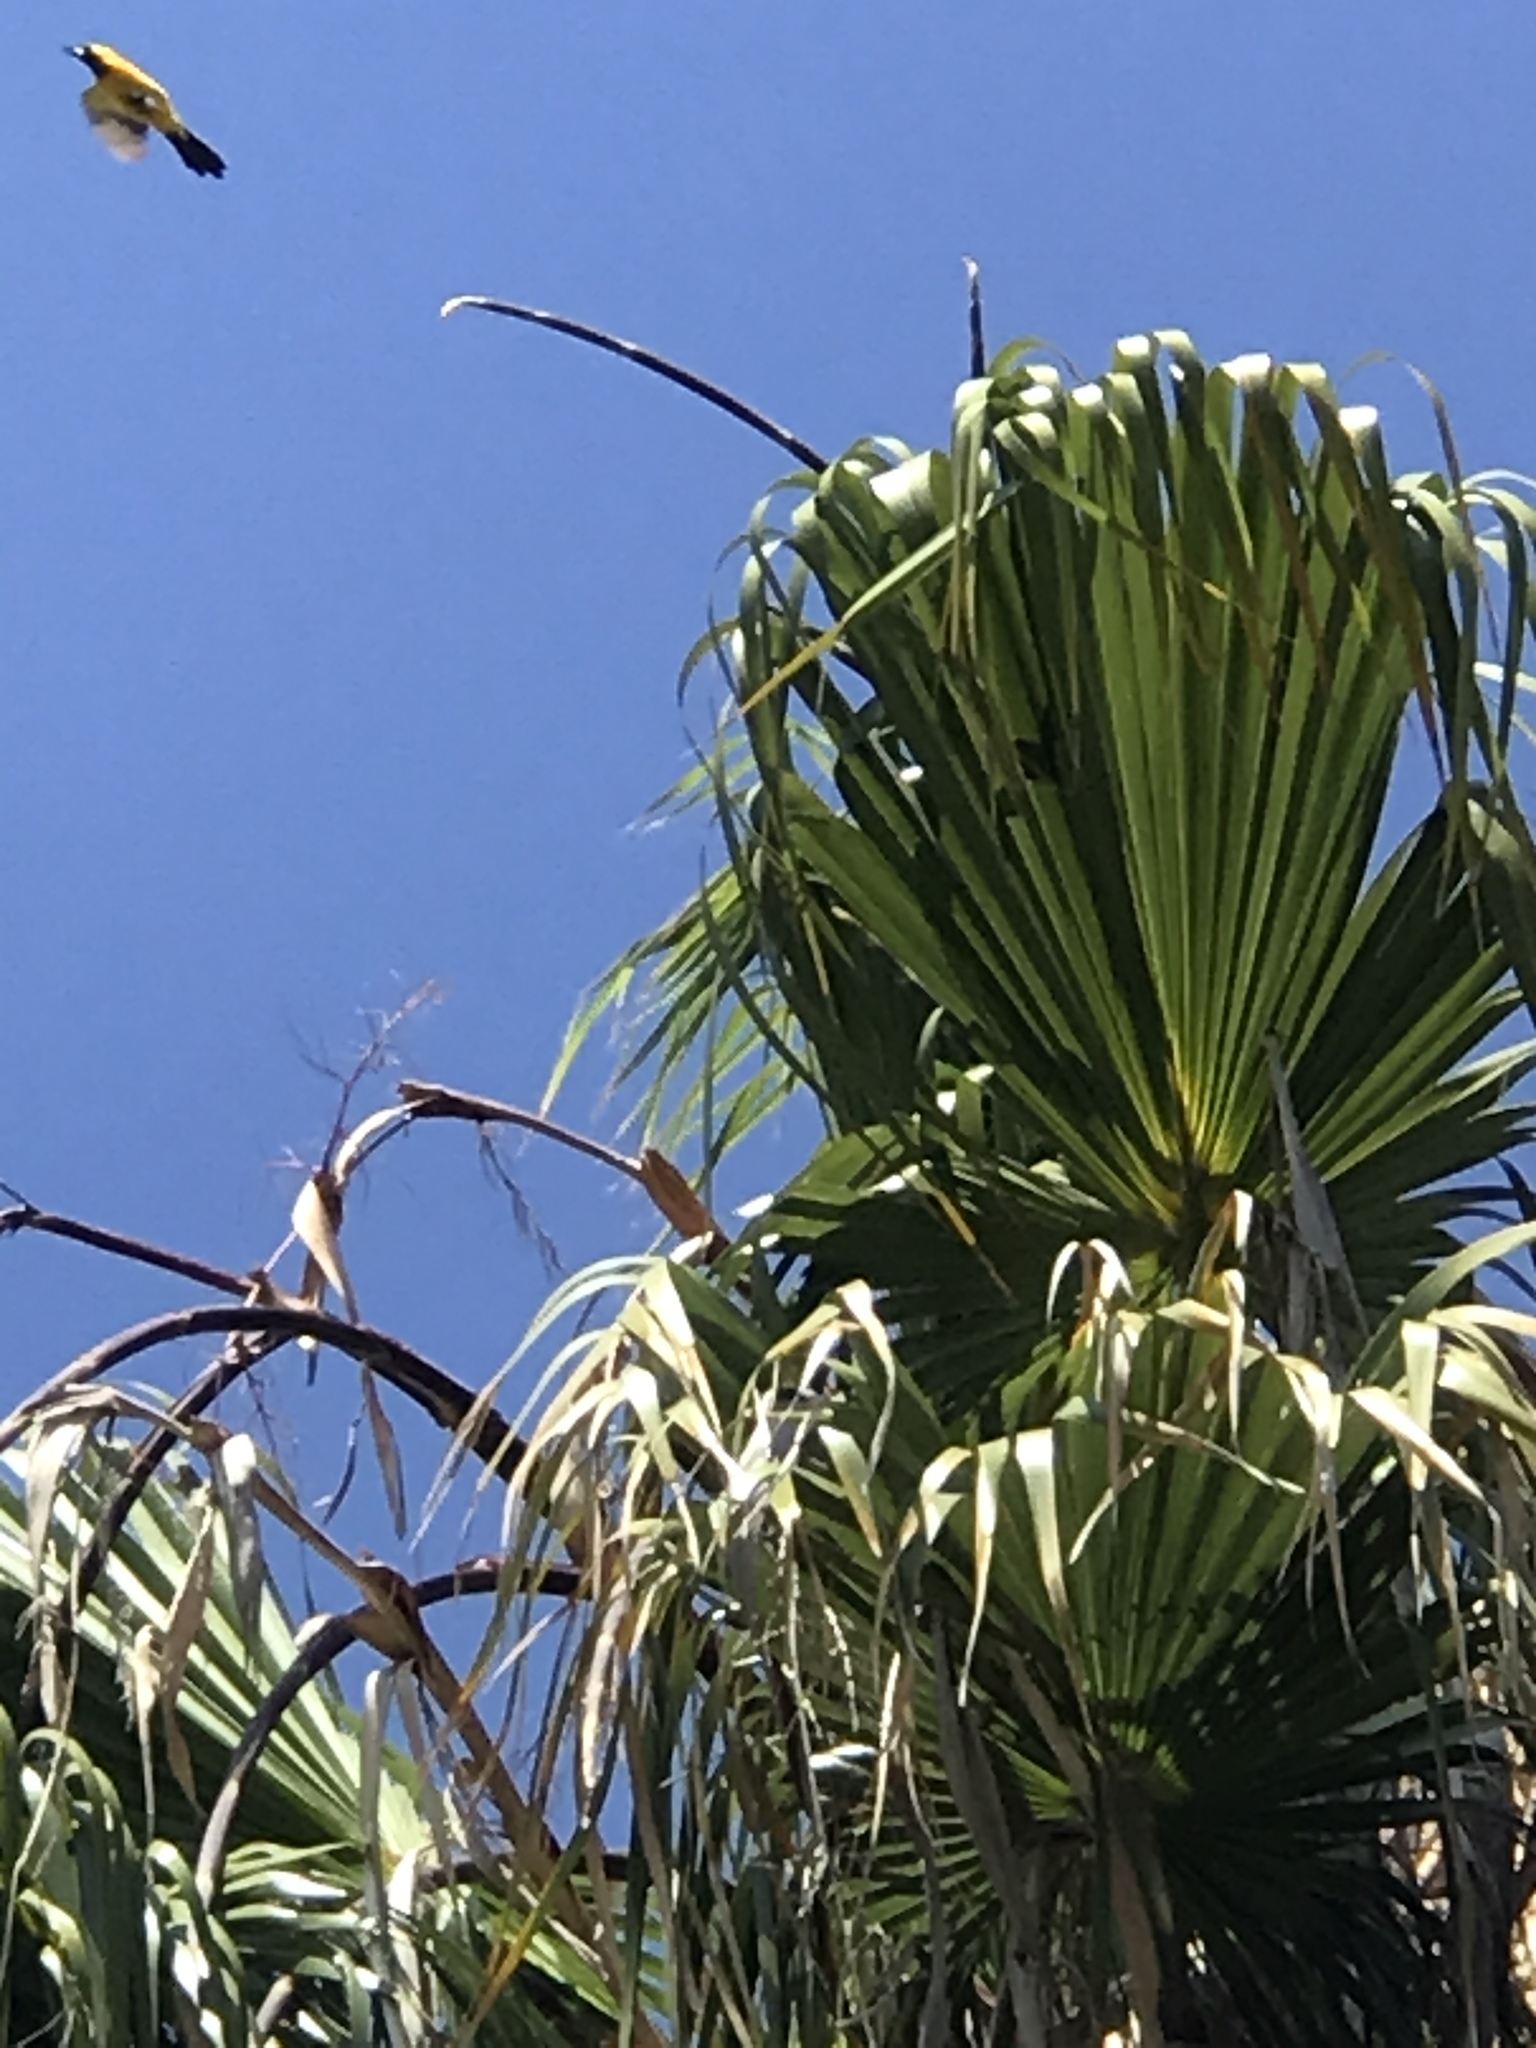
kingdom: Animalia
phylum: Chordata
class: Aves
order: Passeriformes
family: Icteridae
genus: Icterus
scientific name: Icterus cucullatus
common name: Hooded oriole
